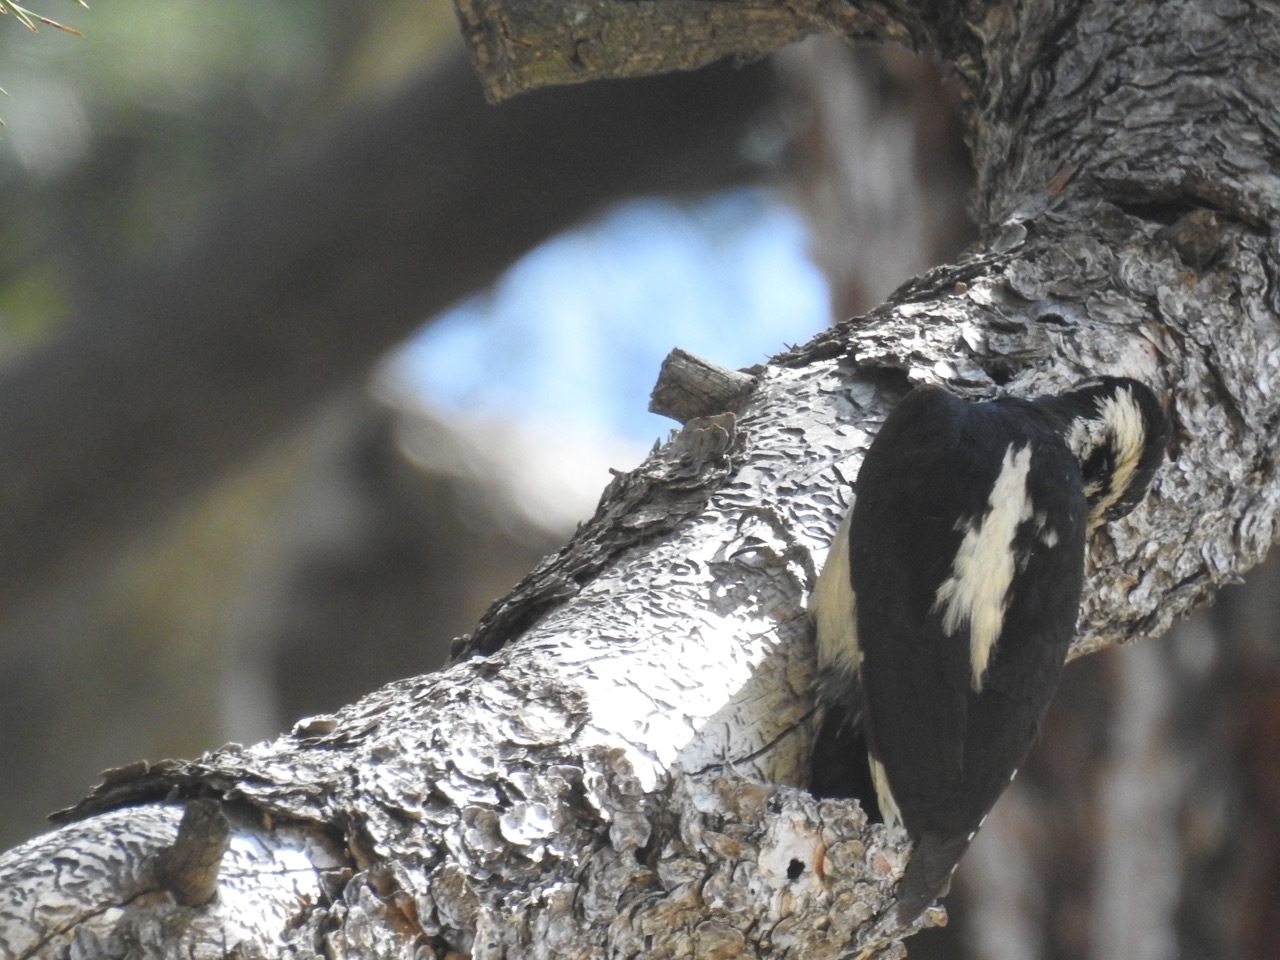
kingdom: Animalia
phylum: Chordata
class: Aves
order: Piciformes
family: Picidae
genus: Leuconotopicus
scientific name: Leuconotopicus villosus
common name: Hairy woodpecker
